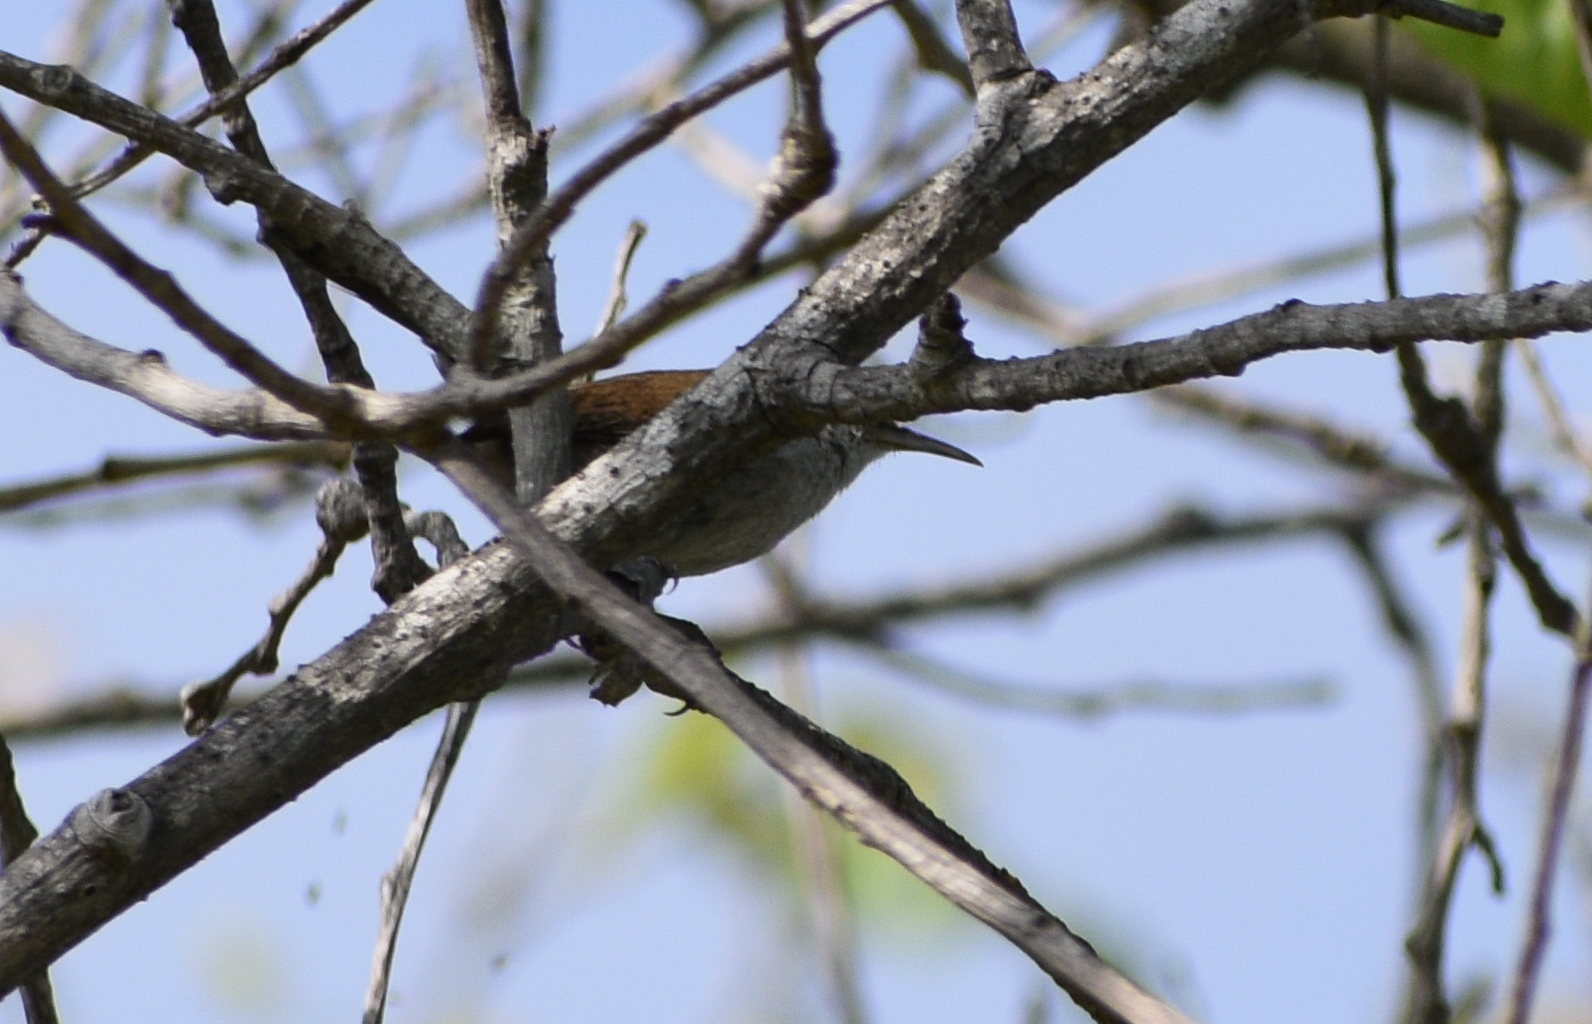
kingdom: Animalia
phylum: Chordata
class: Aves
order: Passeriformes
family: Troglodytidae
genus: Thryomanes
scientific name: Thryomanes bewickii
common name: Bewick's wren
